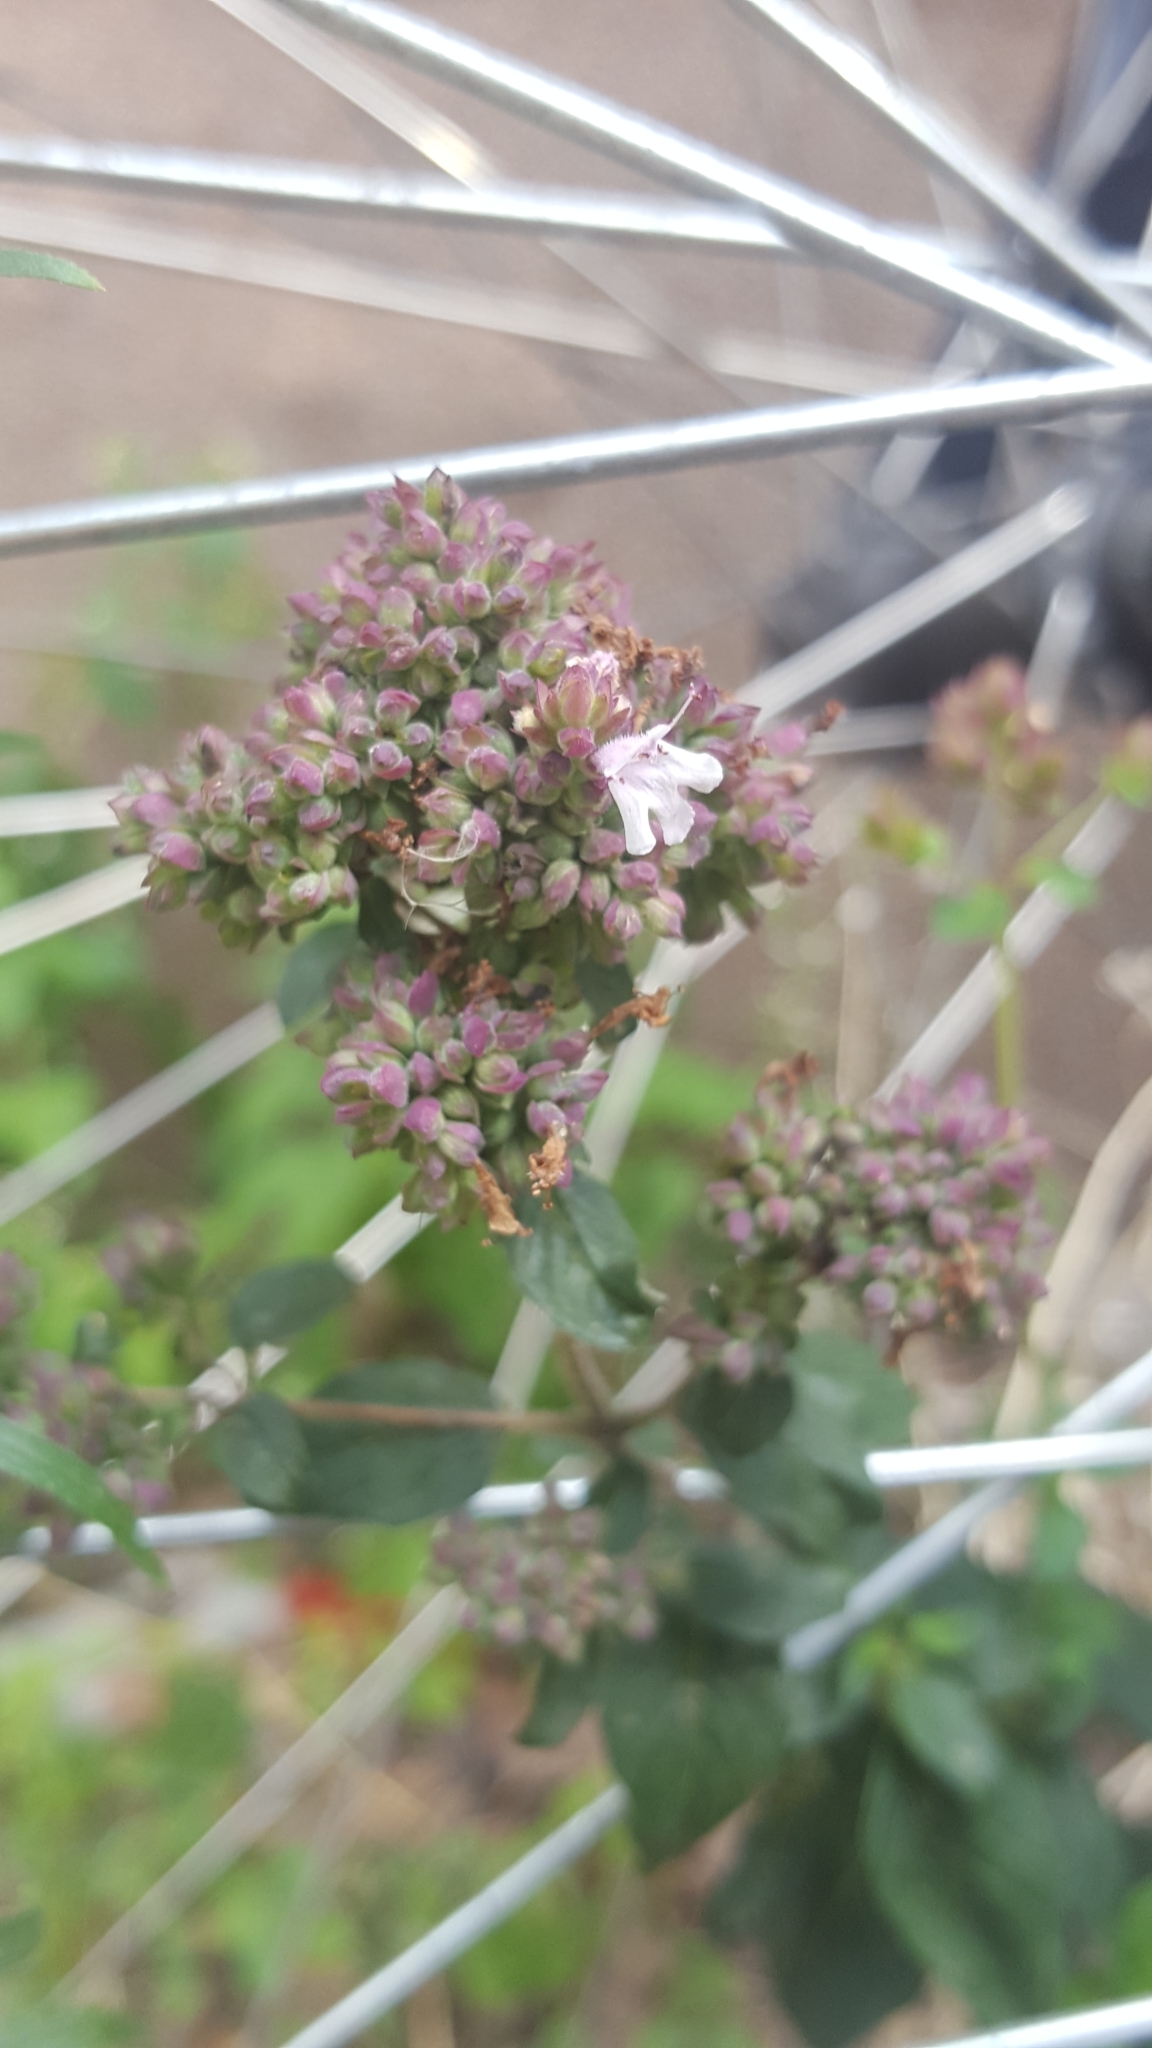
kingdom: Plantae
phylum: Tracheophyta
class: Magnoliopsida
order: Lamiales
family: Lamiaceae
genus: Origanum
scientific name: Origanum vulgare
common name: Wild marjoram
